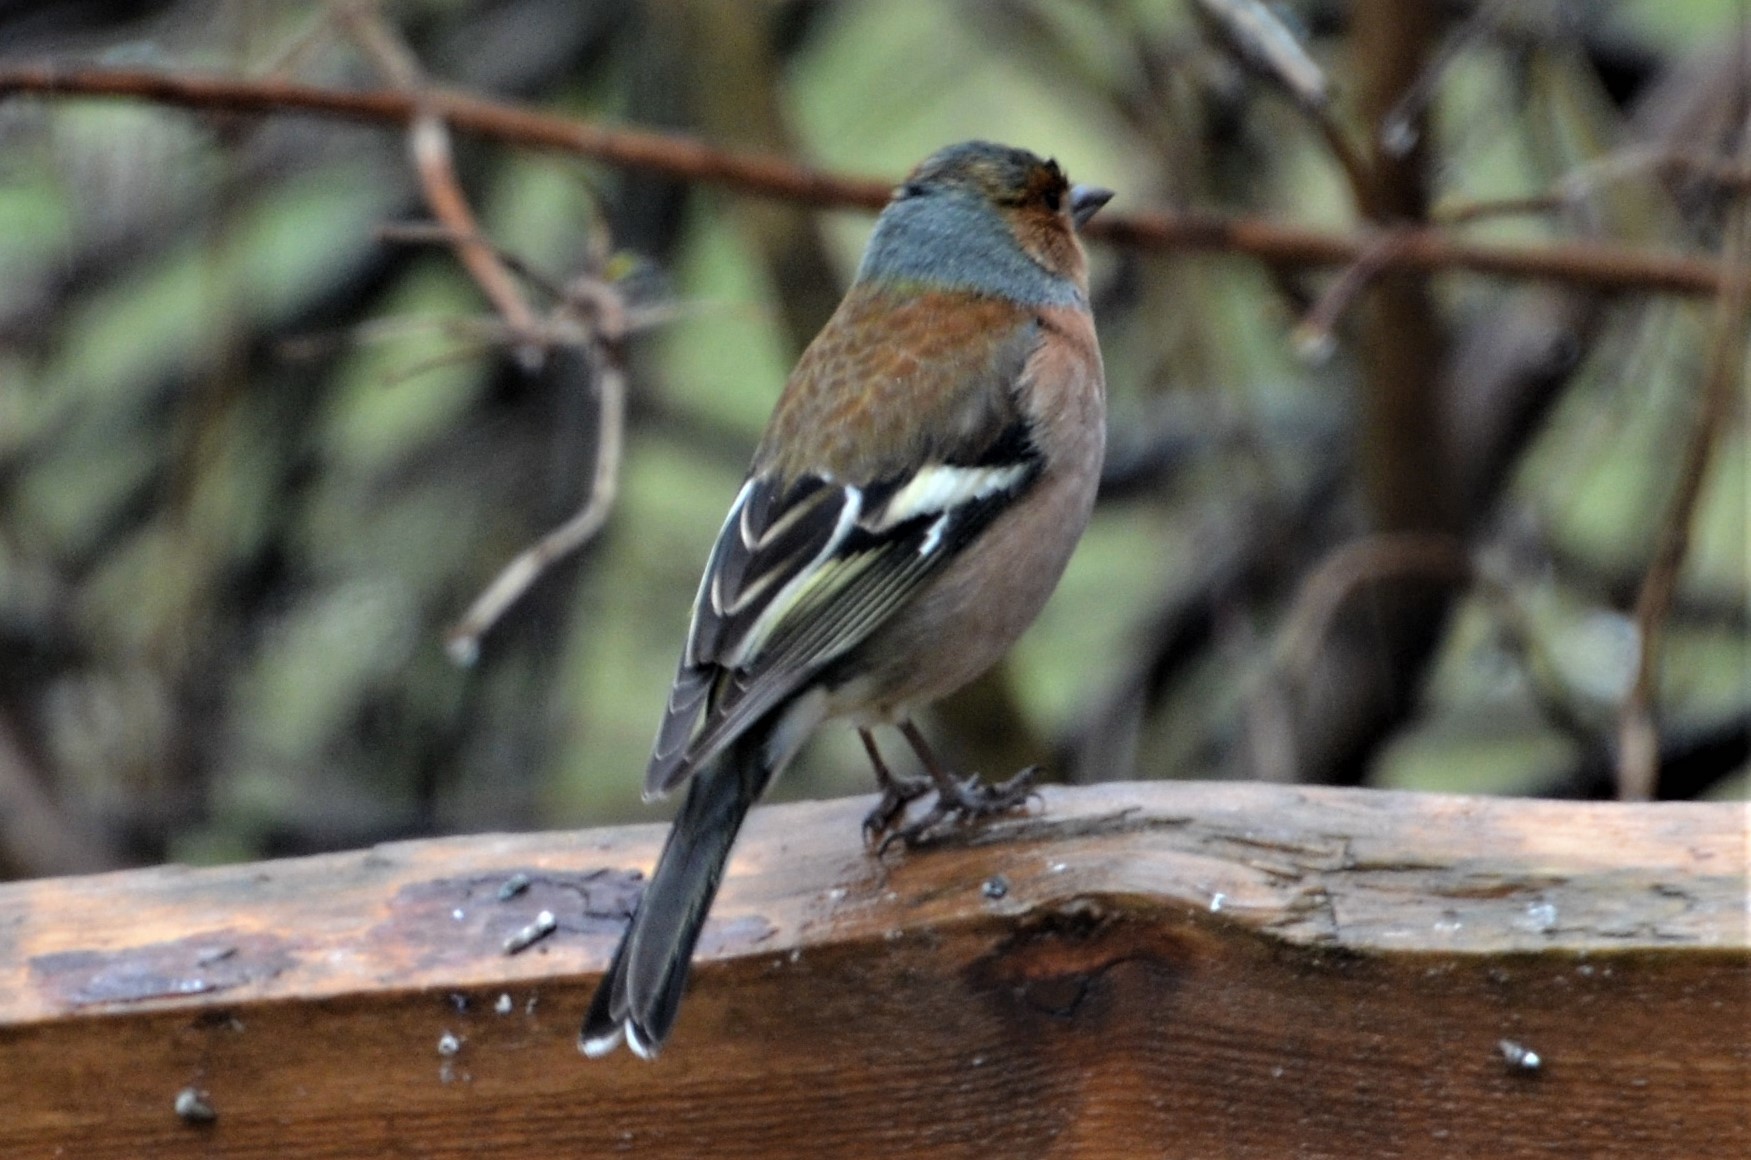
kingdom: Animalia
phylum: Chordata
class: Aves
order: Passeriformes
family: Fringillidae
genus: Fringilla
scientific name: Fringilla coelebs
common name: Common chaffinch
